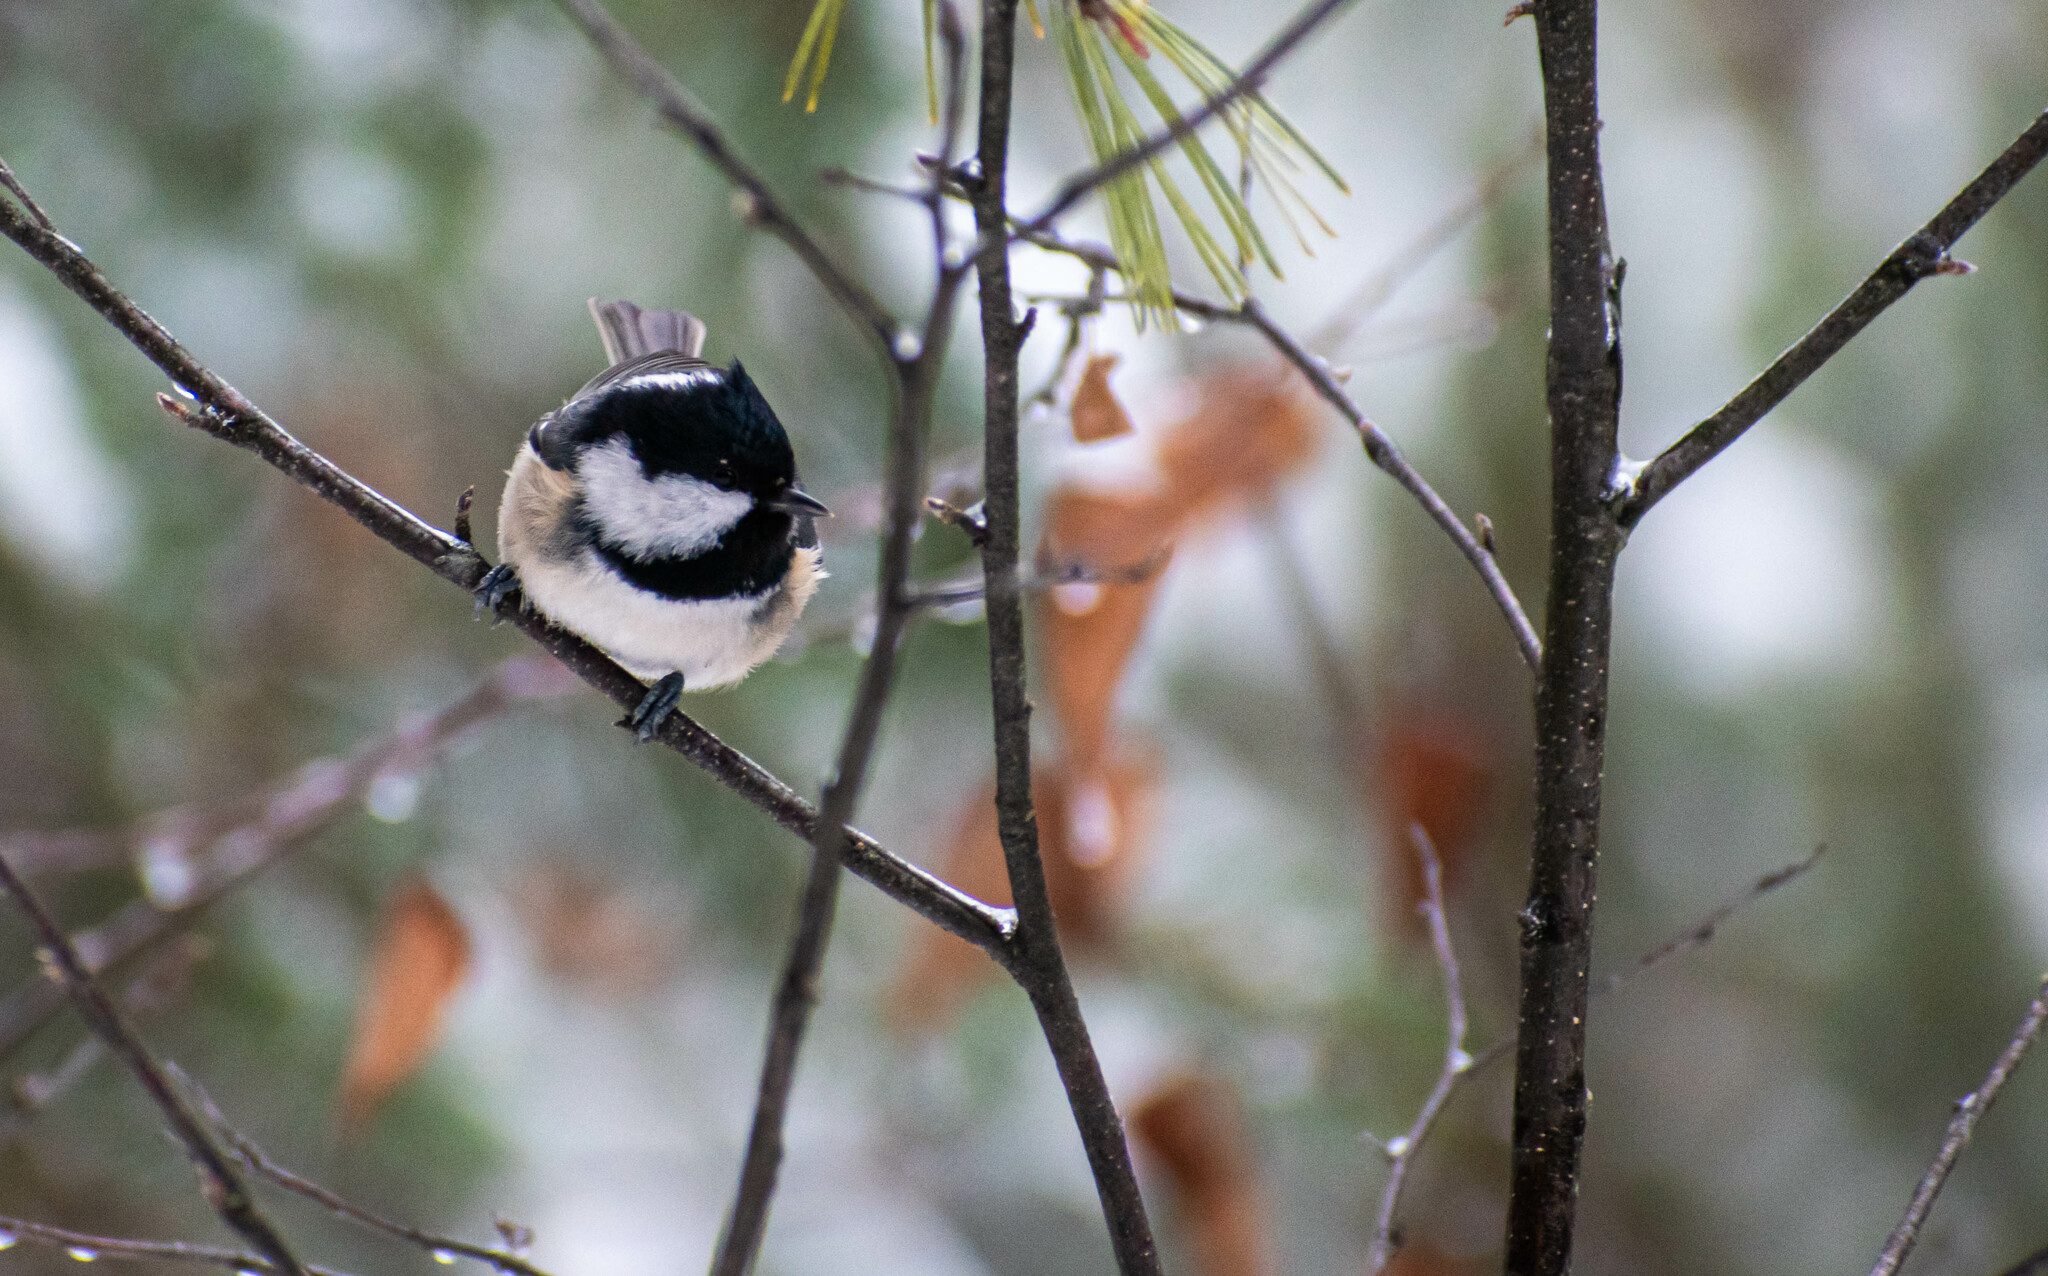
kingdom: Animalia
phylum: Chordata
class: Aves
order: Passeriformes
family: Paridae
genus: Periparus
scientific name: Periparus ater
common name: Coal tit
